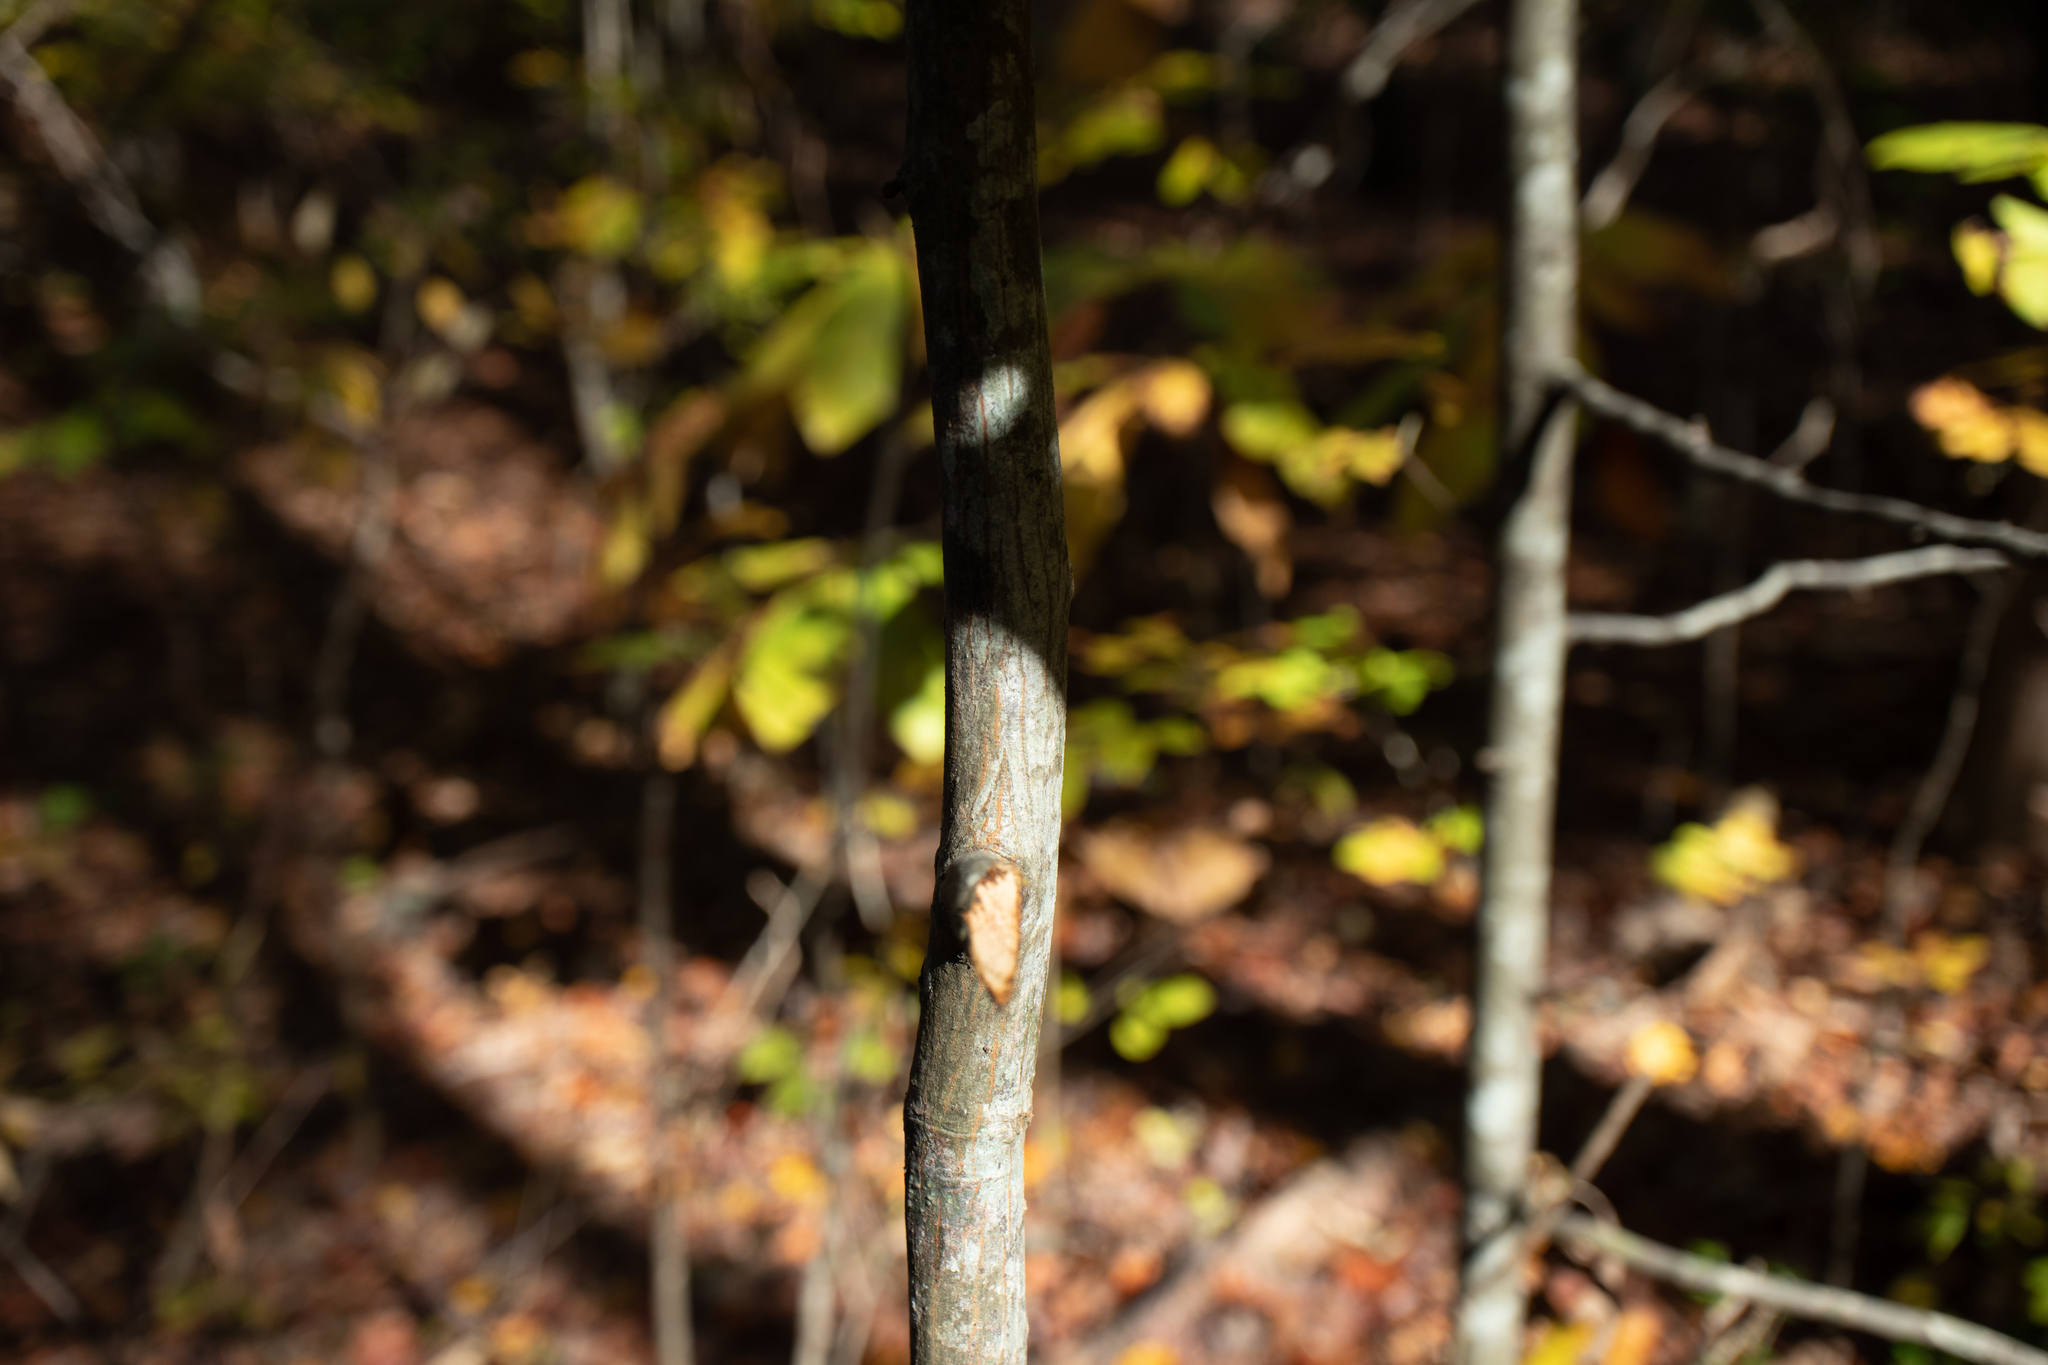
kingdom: Plantae
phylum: Tracheophyta
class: Magnoliopsida
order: Fagales
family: Juglandaceae
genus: Carya
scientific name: Carya alba
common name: Mockernut hickory
